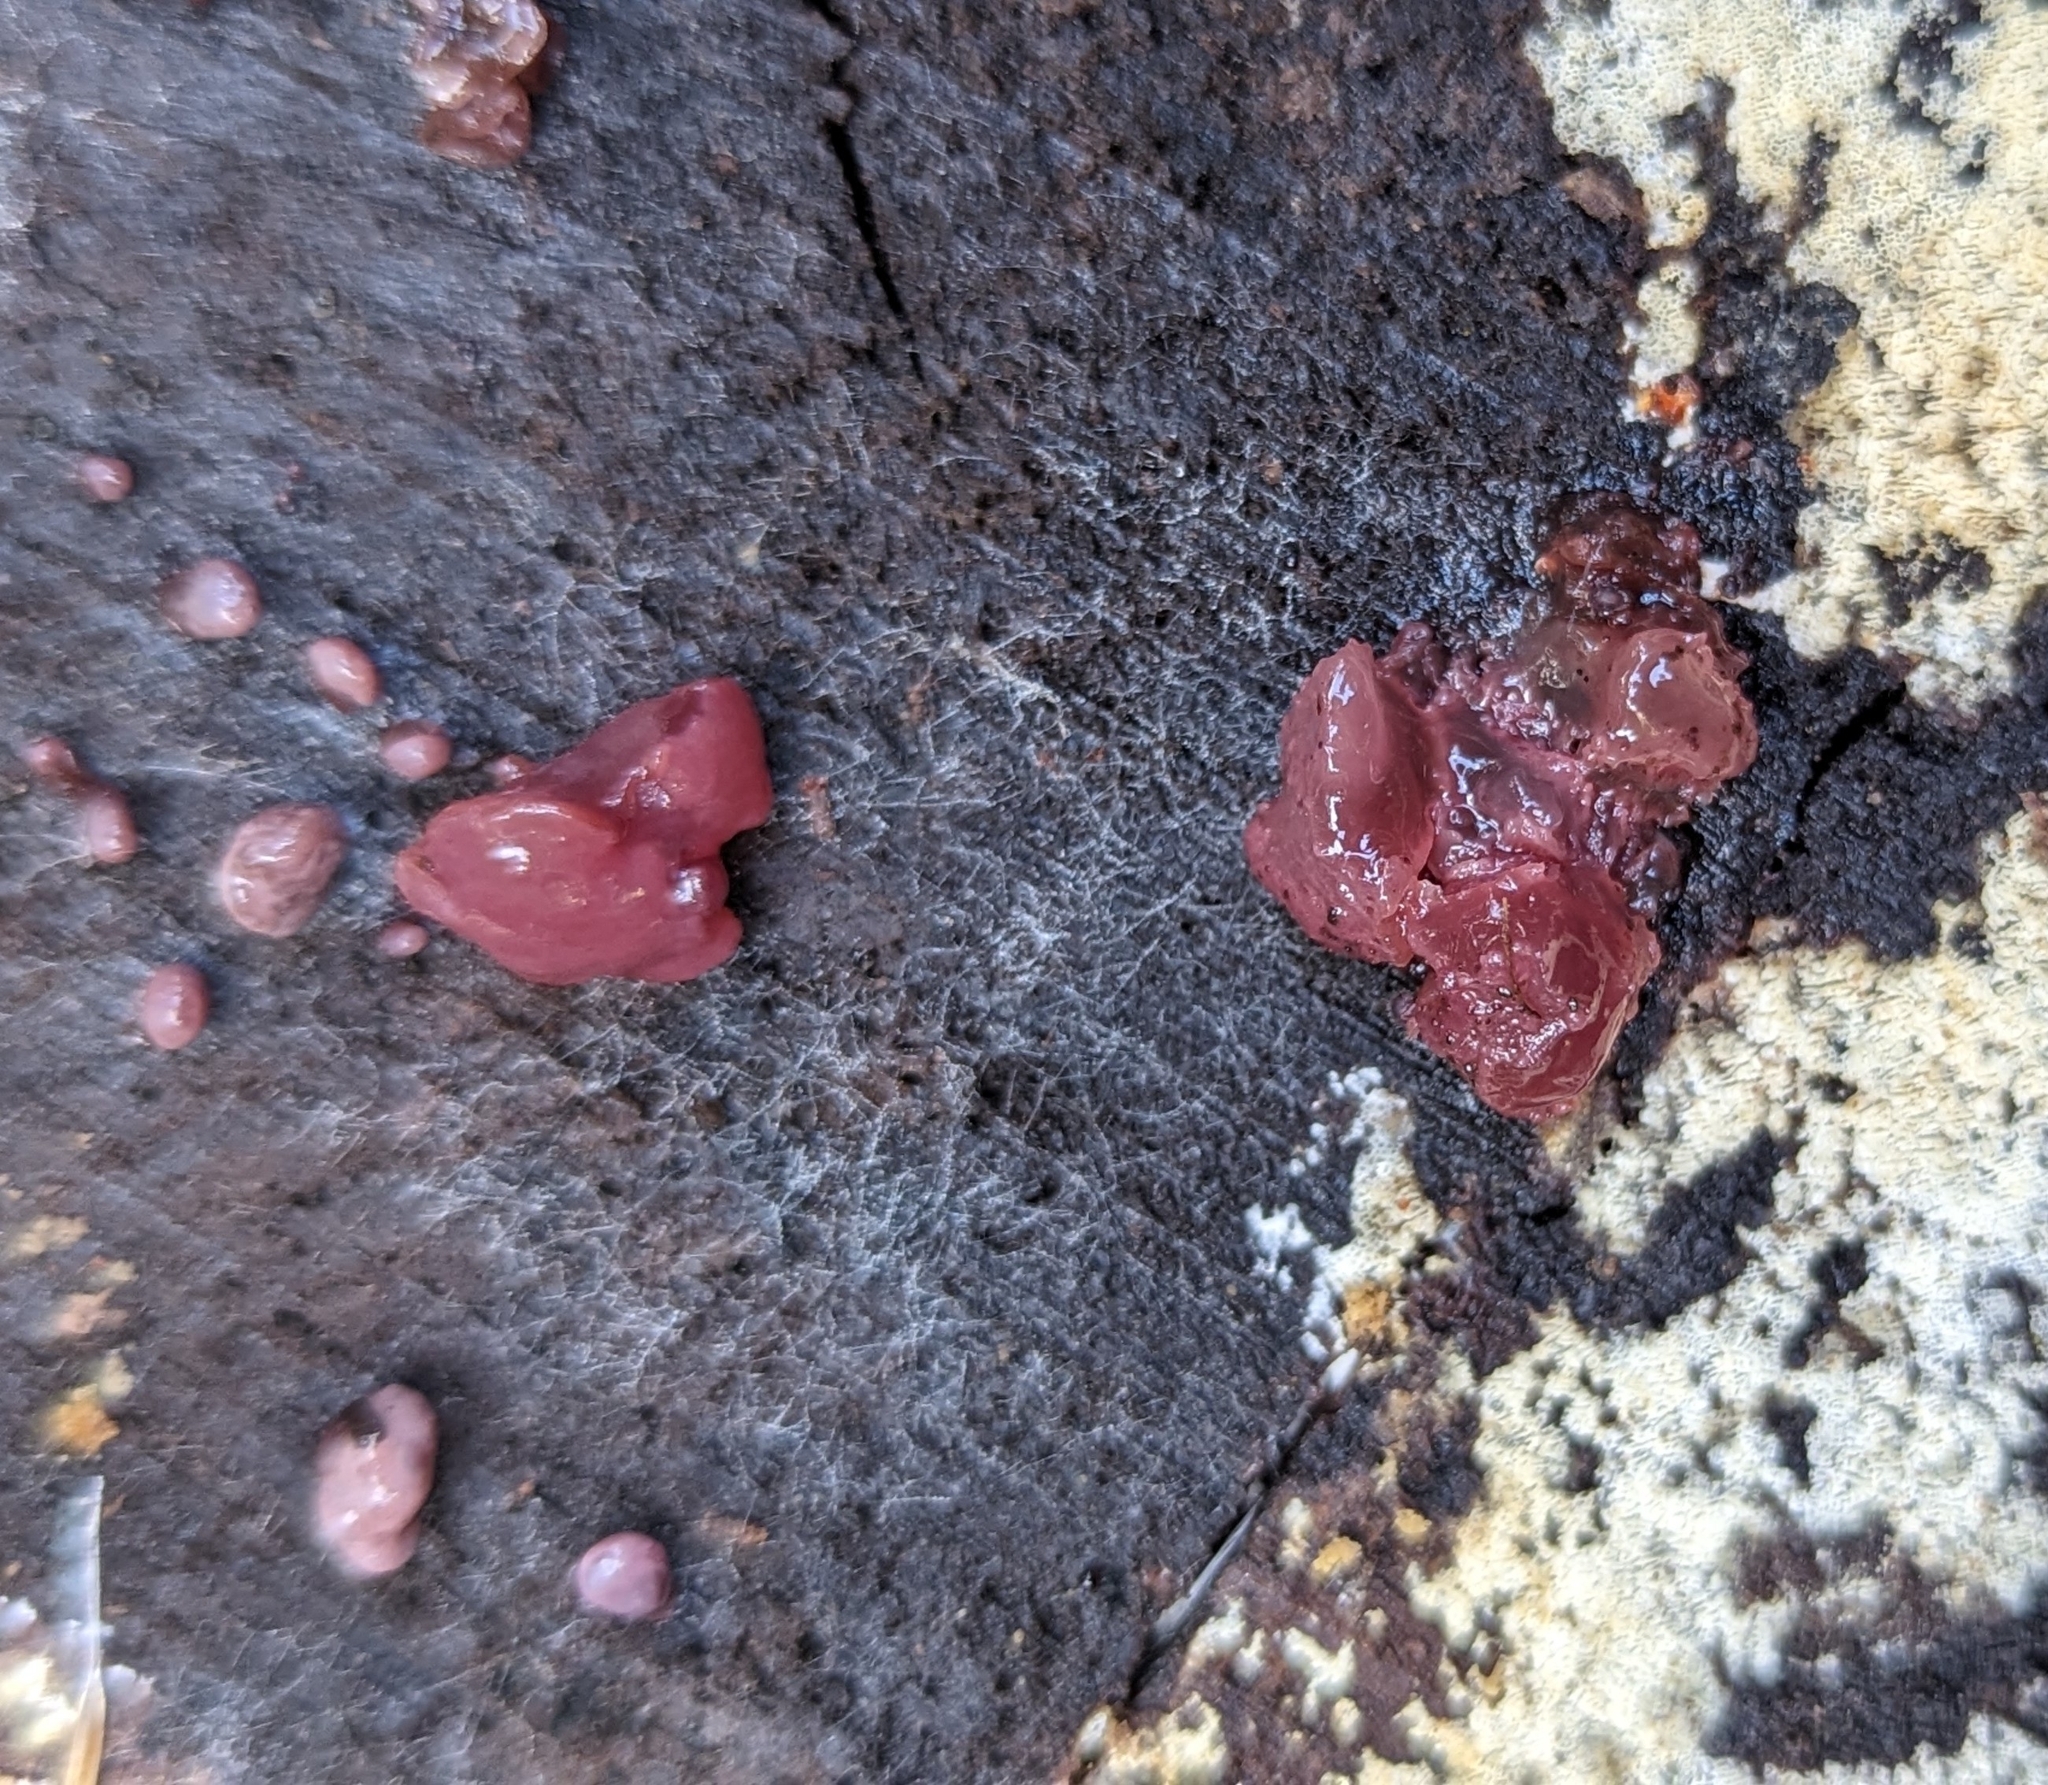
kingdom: Fungi
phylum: Ascomycota
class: Leotiomycetes
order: Helotiales
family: Gelatinodiscaceae
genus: Ascocoryne
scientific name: Ascocoryne sarcoides
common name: Purple jellydisc
